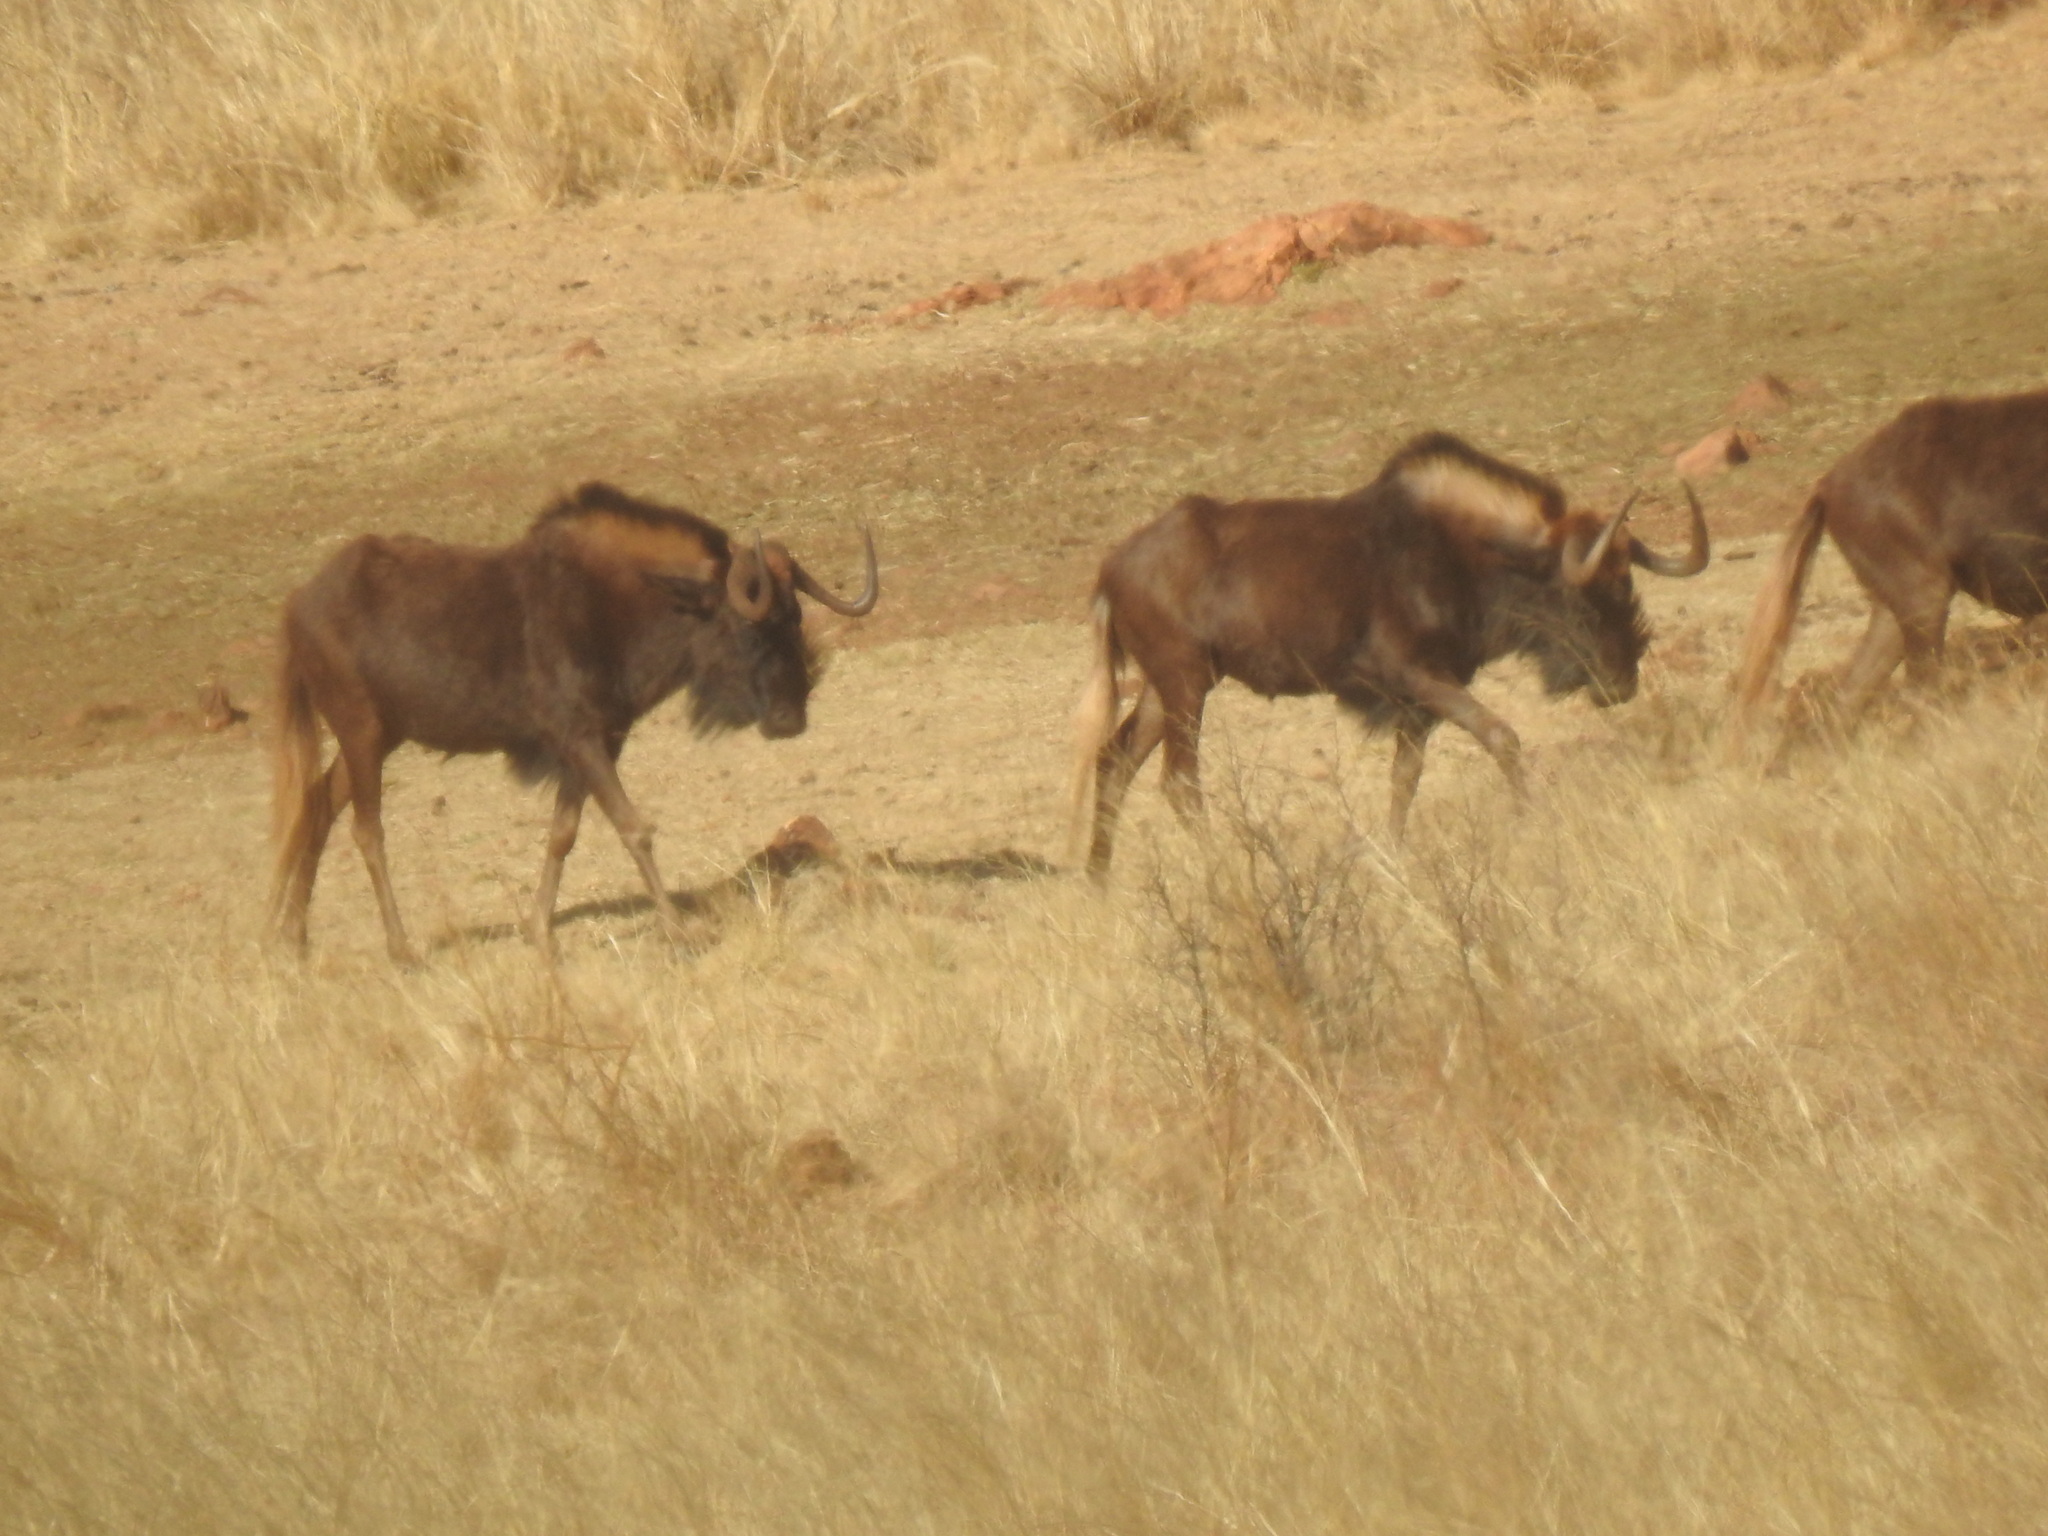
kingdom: Animalia
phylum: Chordata
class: Mammalia
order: Artiodactyla
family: Bovidae
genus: Connochaetes
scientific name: Connochaetes gnou
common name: Black wildebeest
